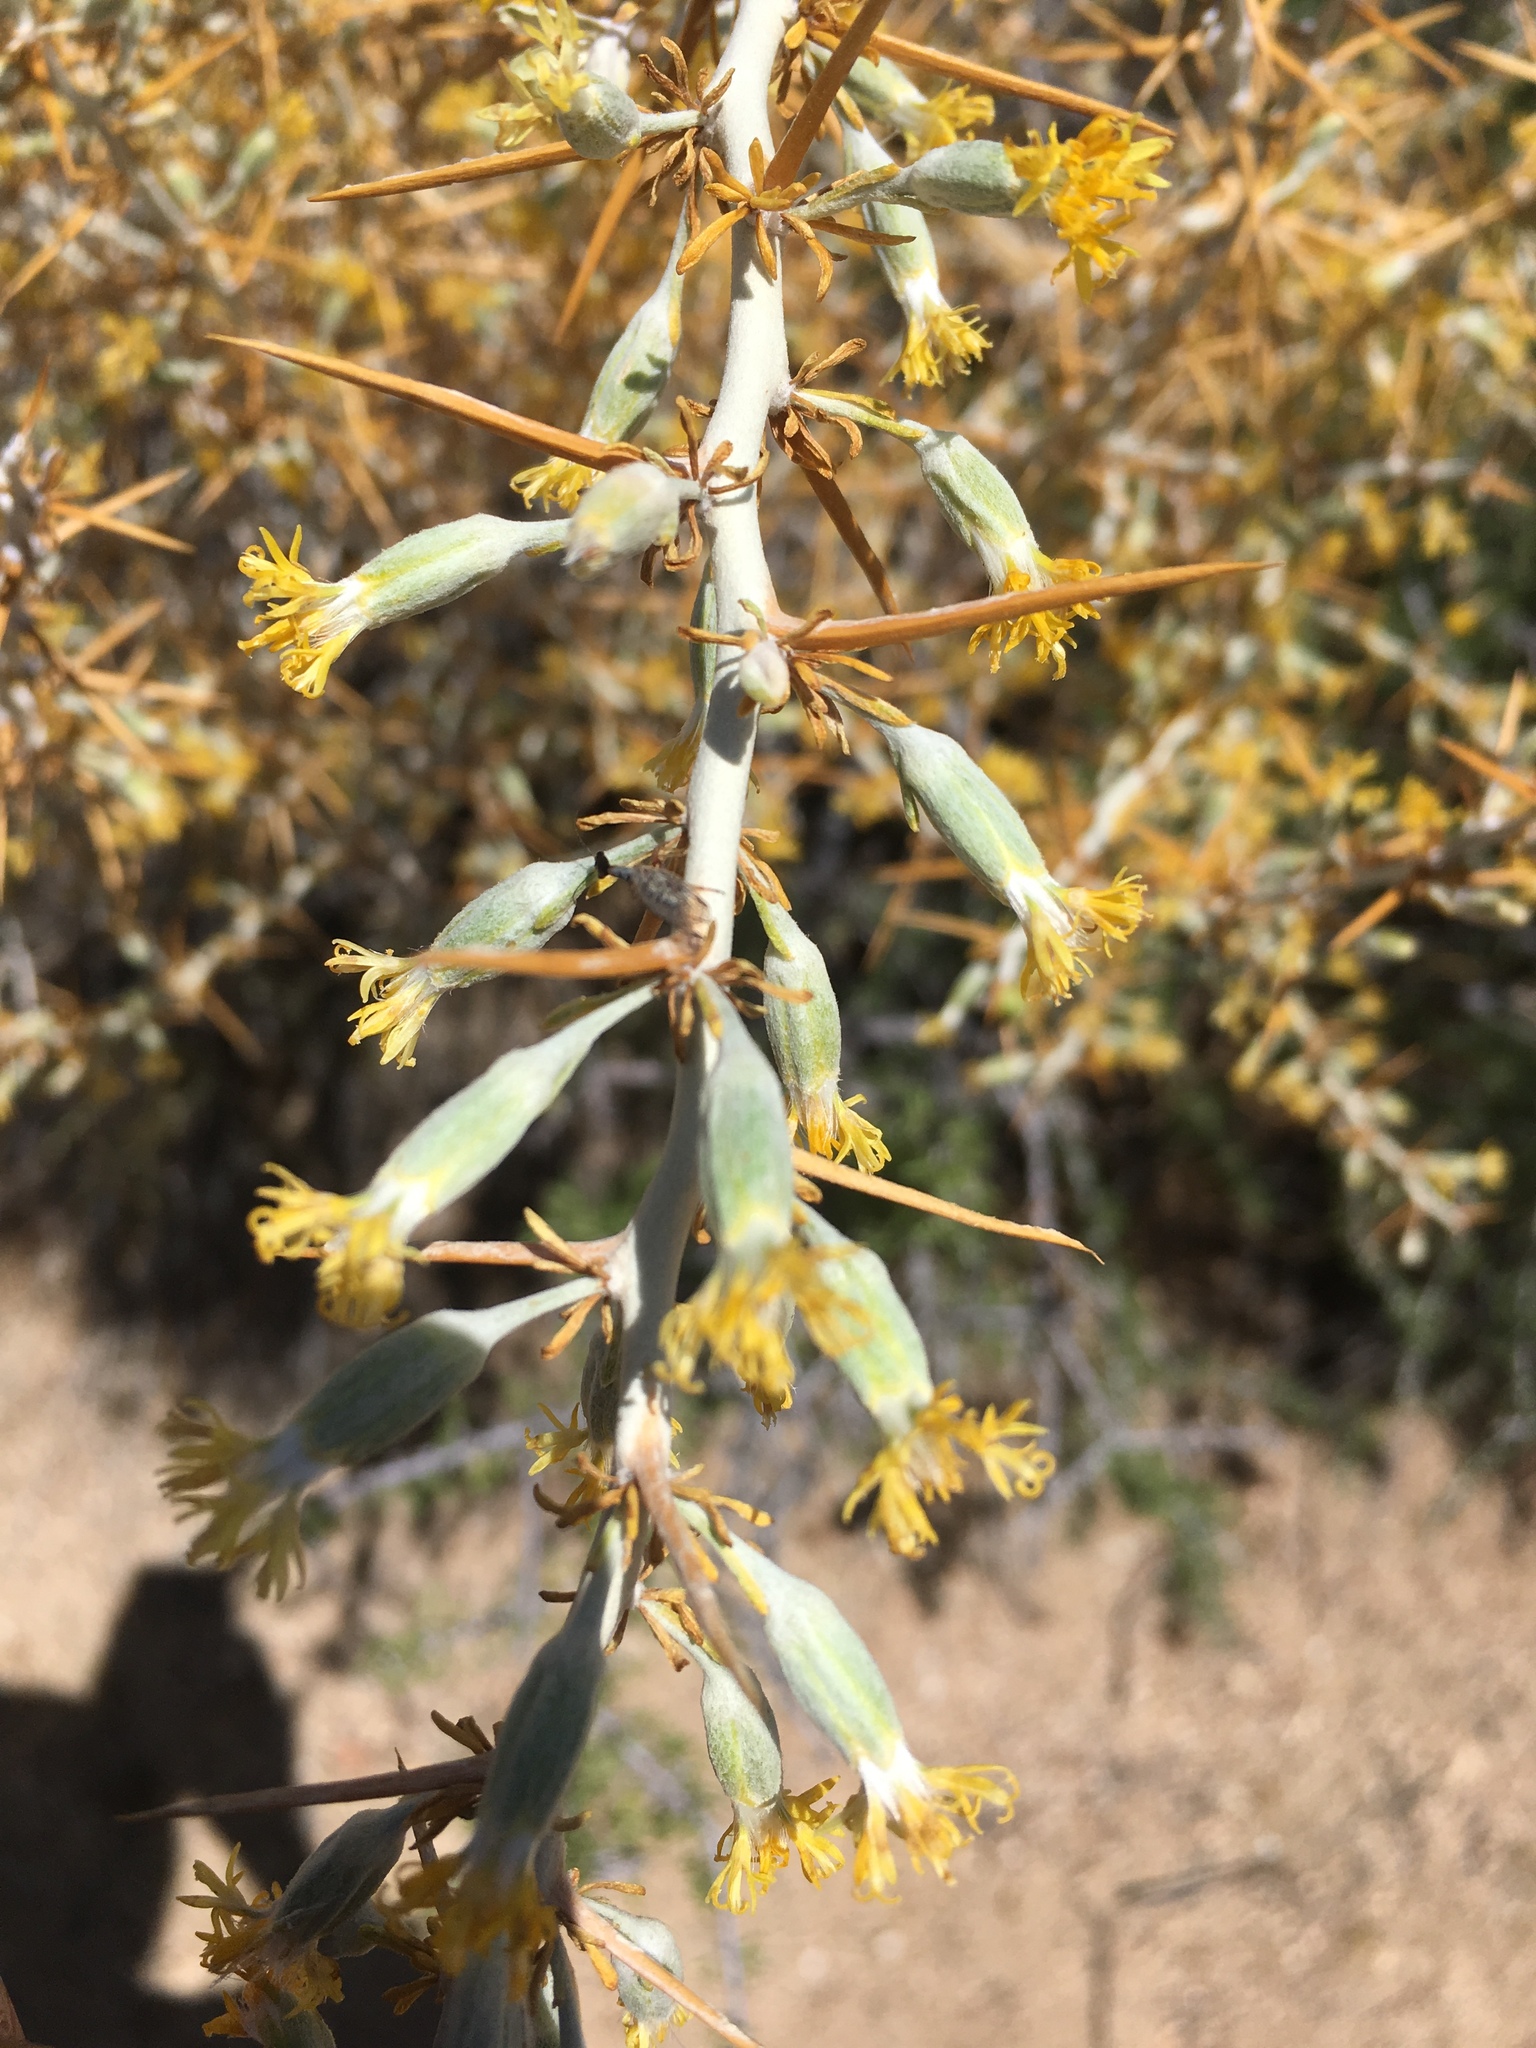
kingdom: Plantae
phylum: Tracheophyta
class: Magnoliopsida
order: Asterales
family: Asteraceae
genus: Tetradymia
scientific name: Tetradymia axillaris
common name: Long-spine horsebrush
